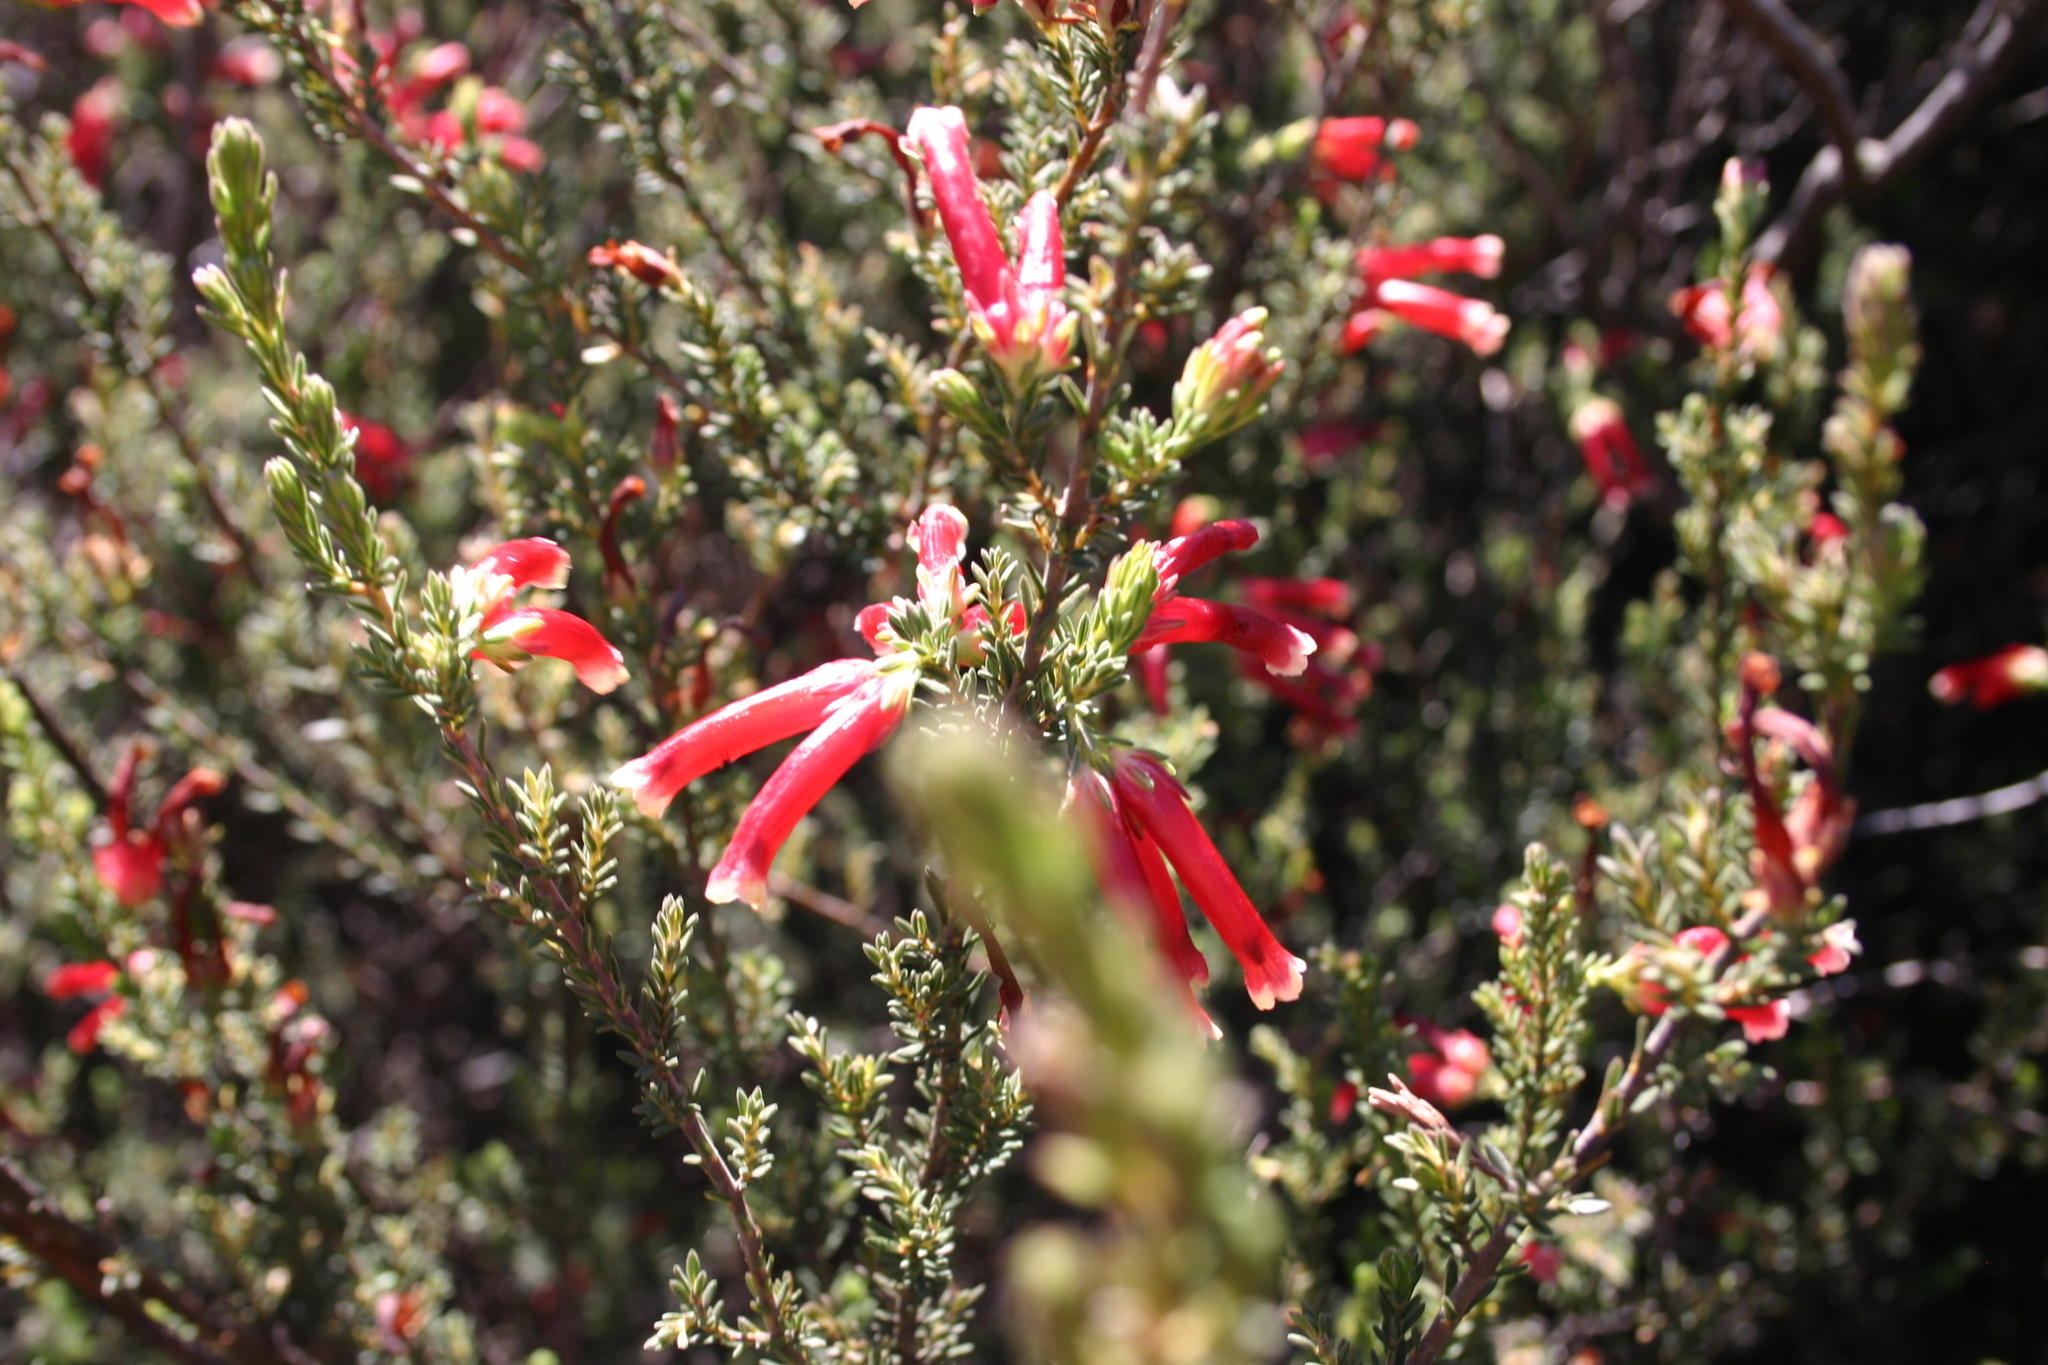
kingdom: Plantae
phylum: Tracheophyta
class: Magnoliopsida
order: Ericales
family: Ericaceae
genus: Erica
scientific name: Erica discolor
